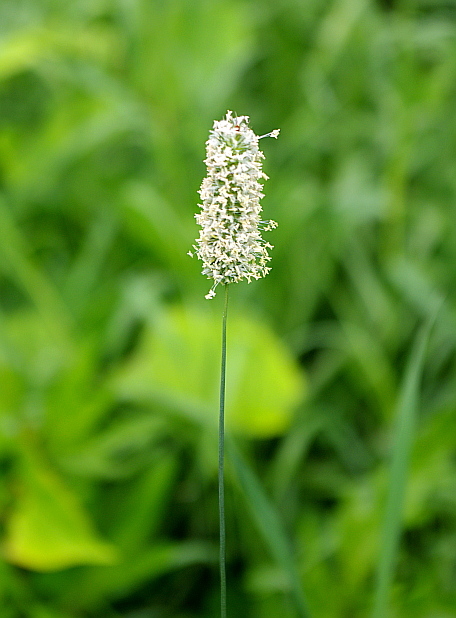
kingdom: Plantae
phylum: Tracheophyta
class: Liliopsida
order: Poales
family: Poaceae
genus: Phleum
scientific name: Phleum pratense
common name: Timothy grass
